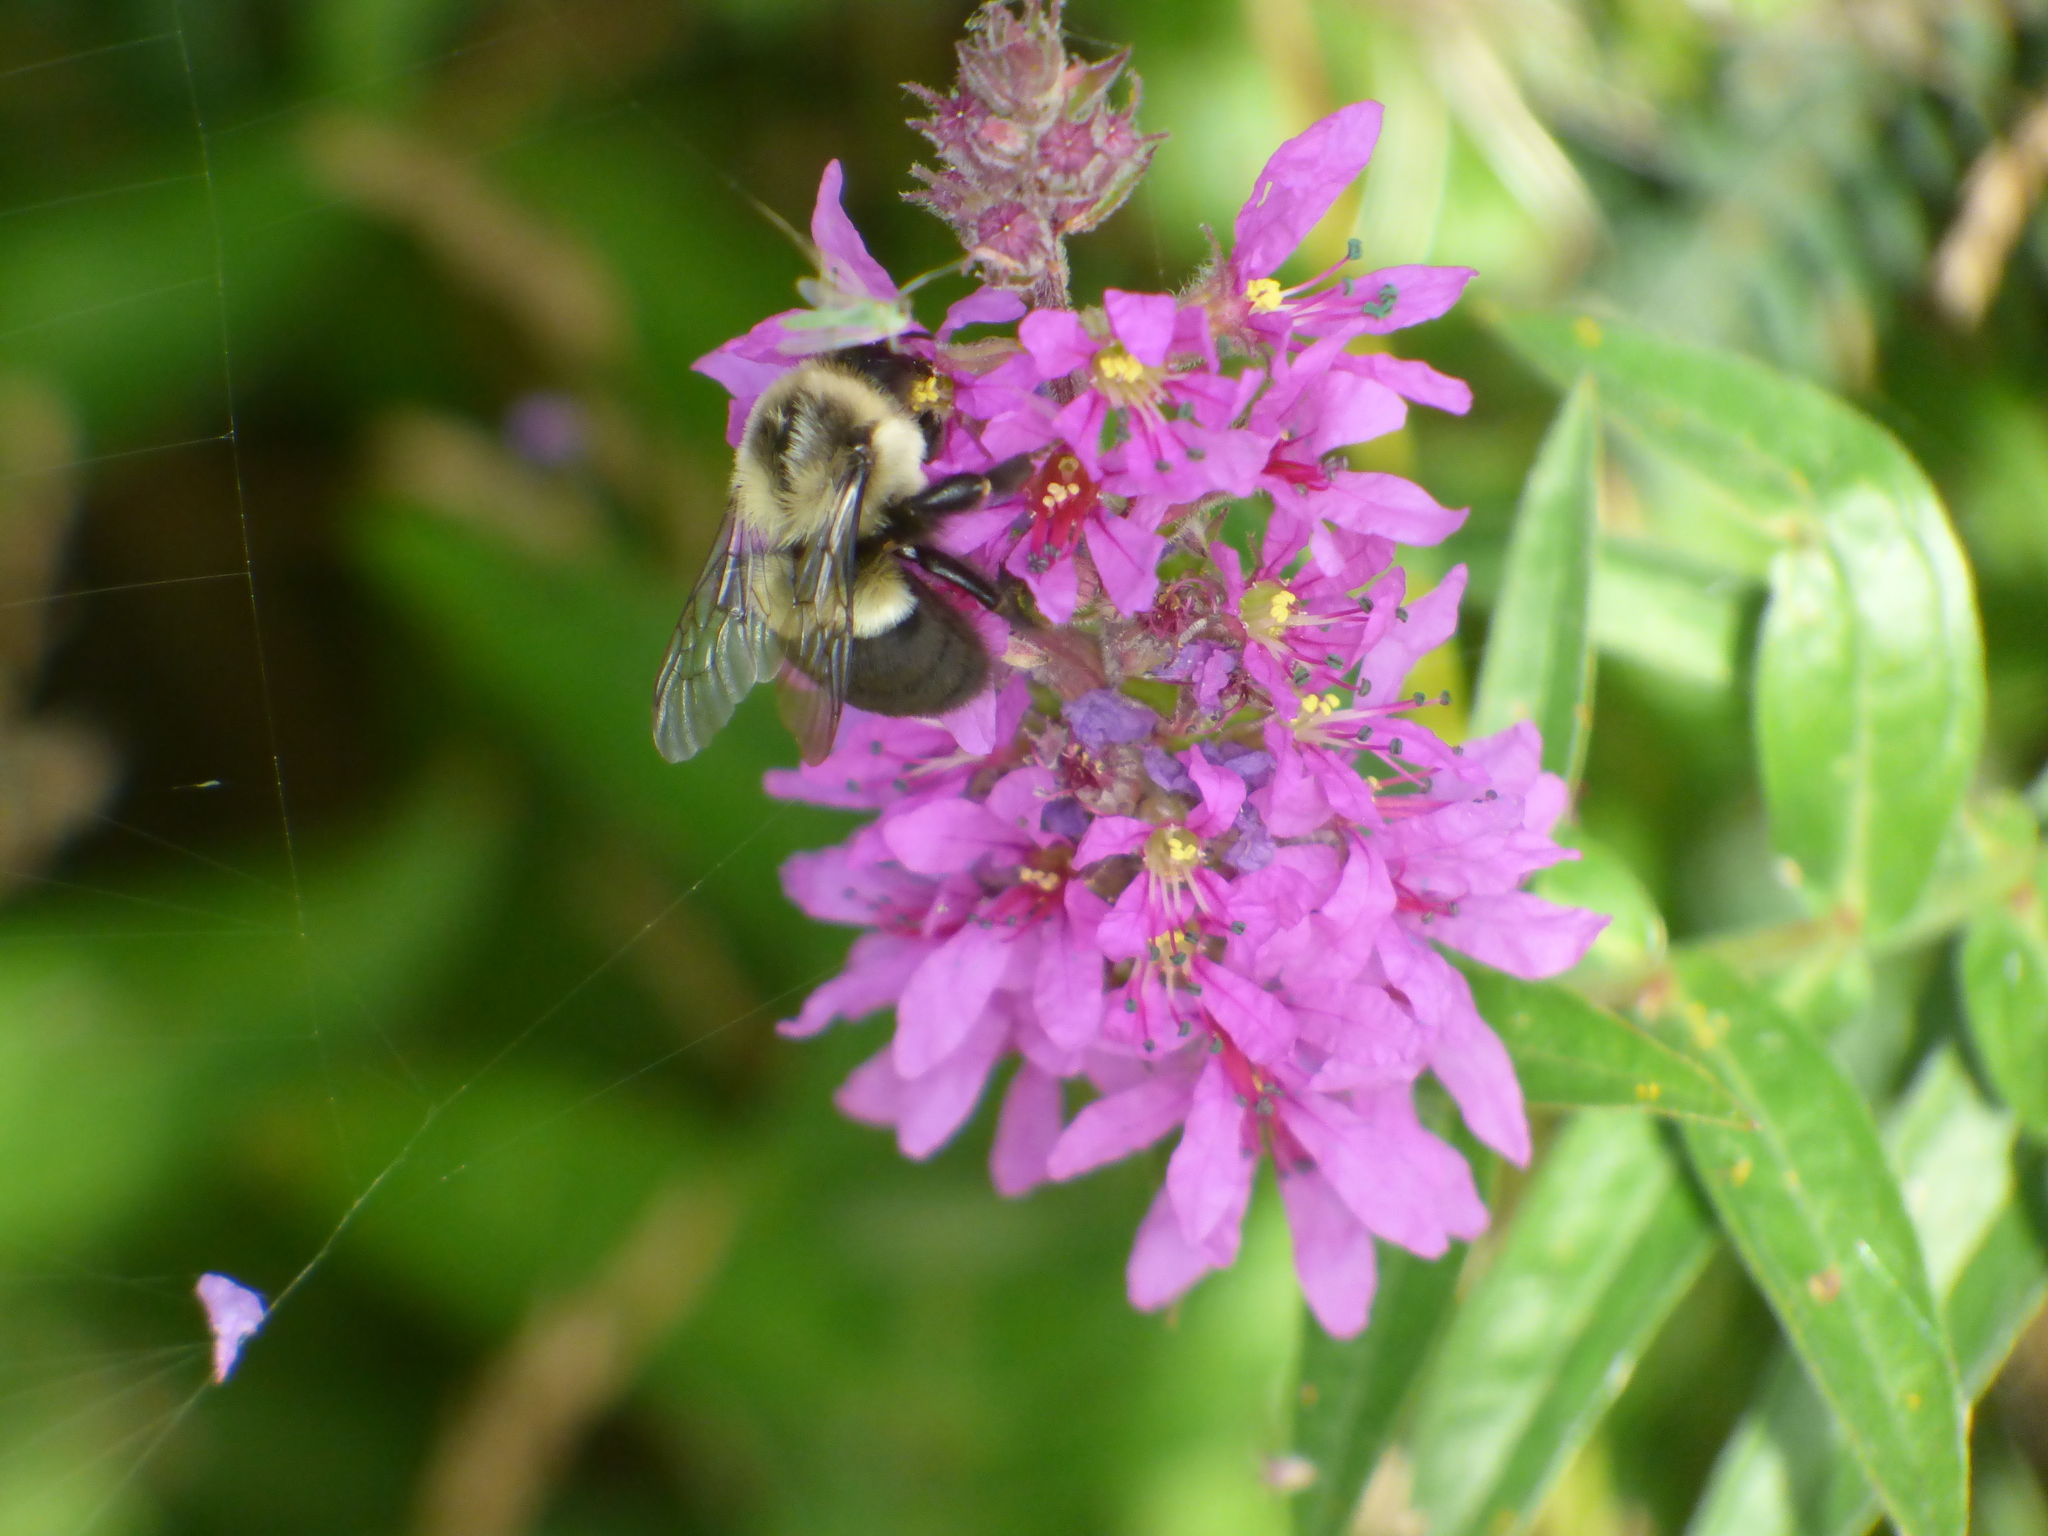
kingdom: Animalia
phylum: Arthropoda
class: Insecta
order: Hymenoptera
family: Apidae
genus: Bombus
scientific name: Bombus impatiens
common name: Common eastern bumble bee
